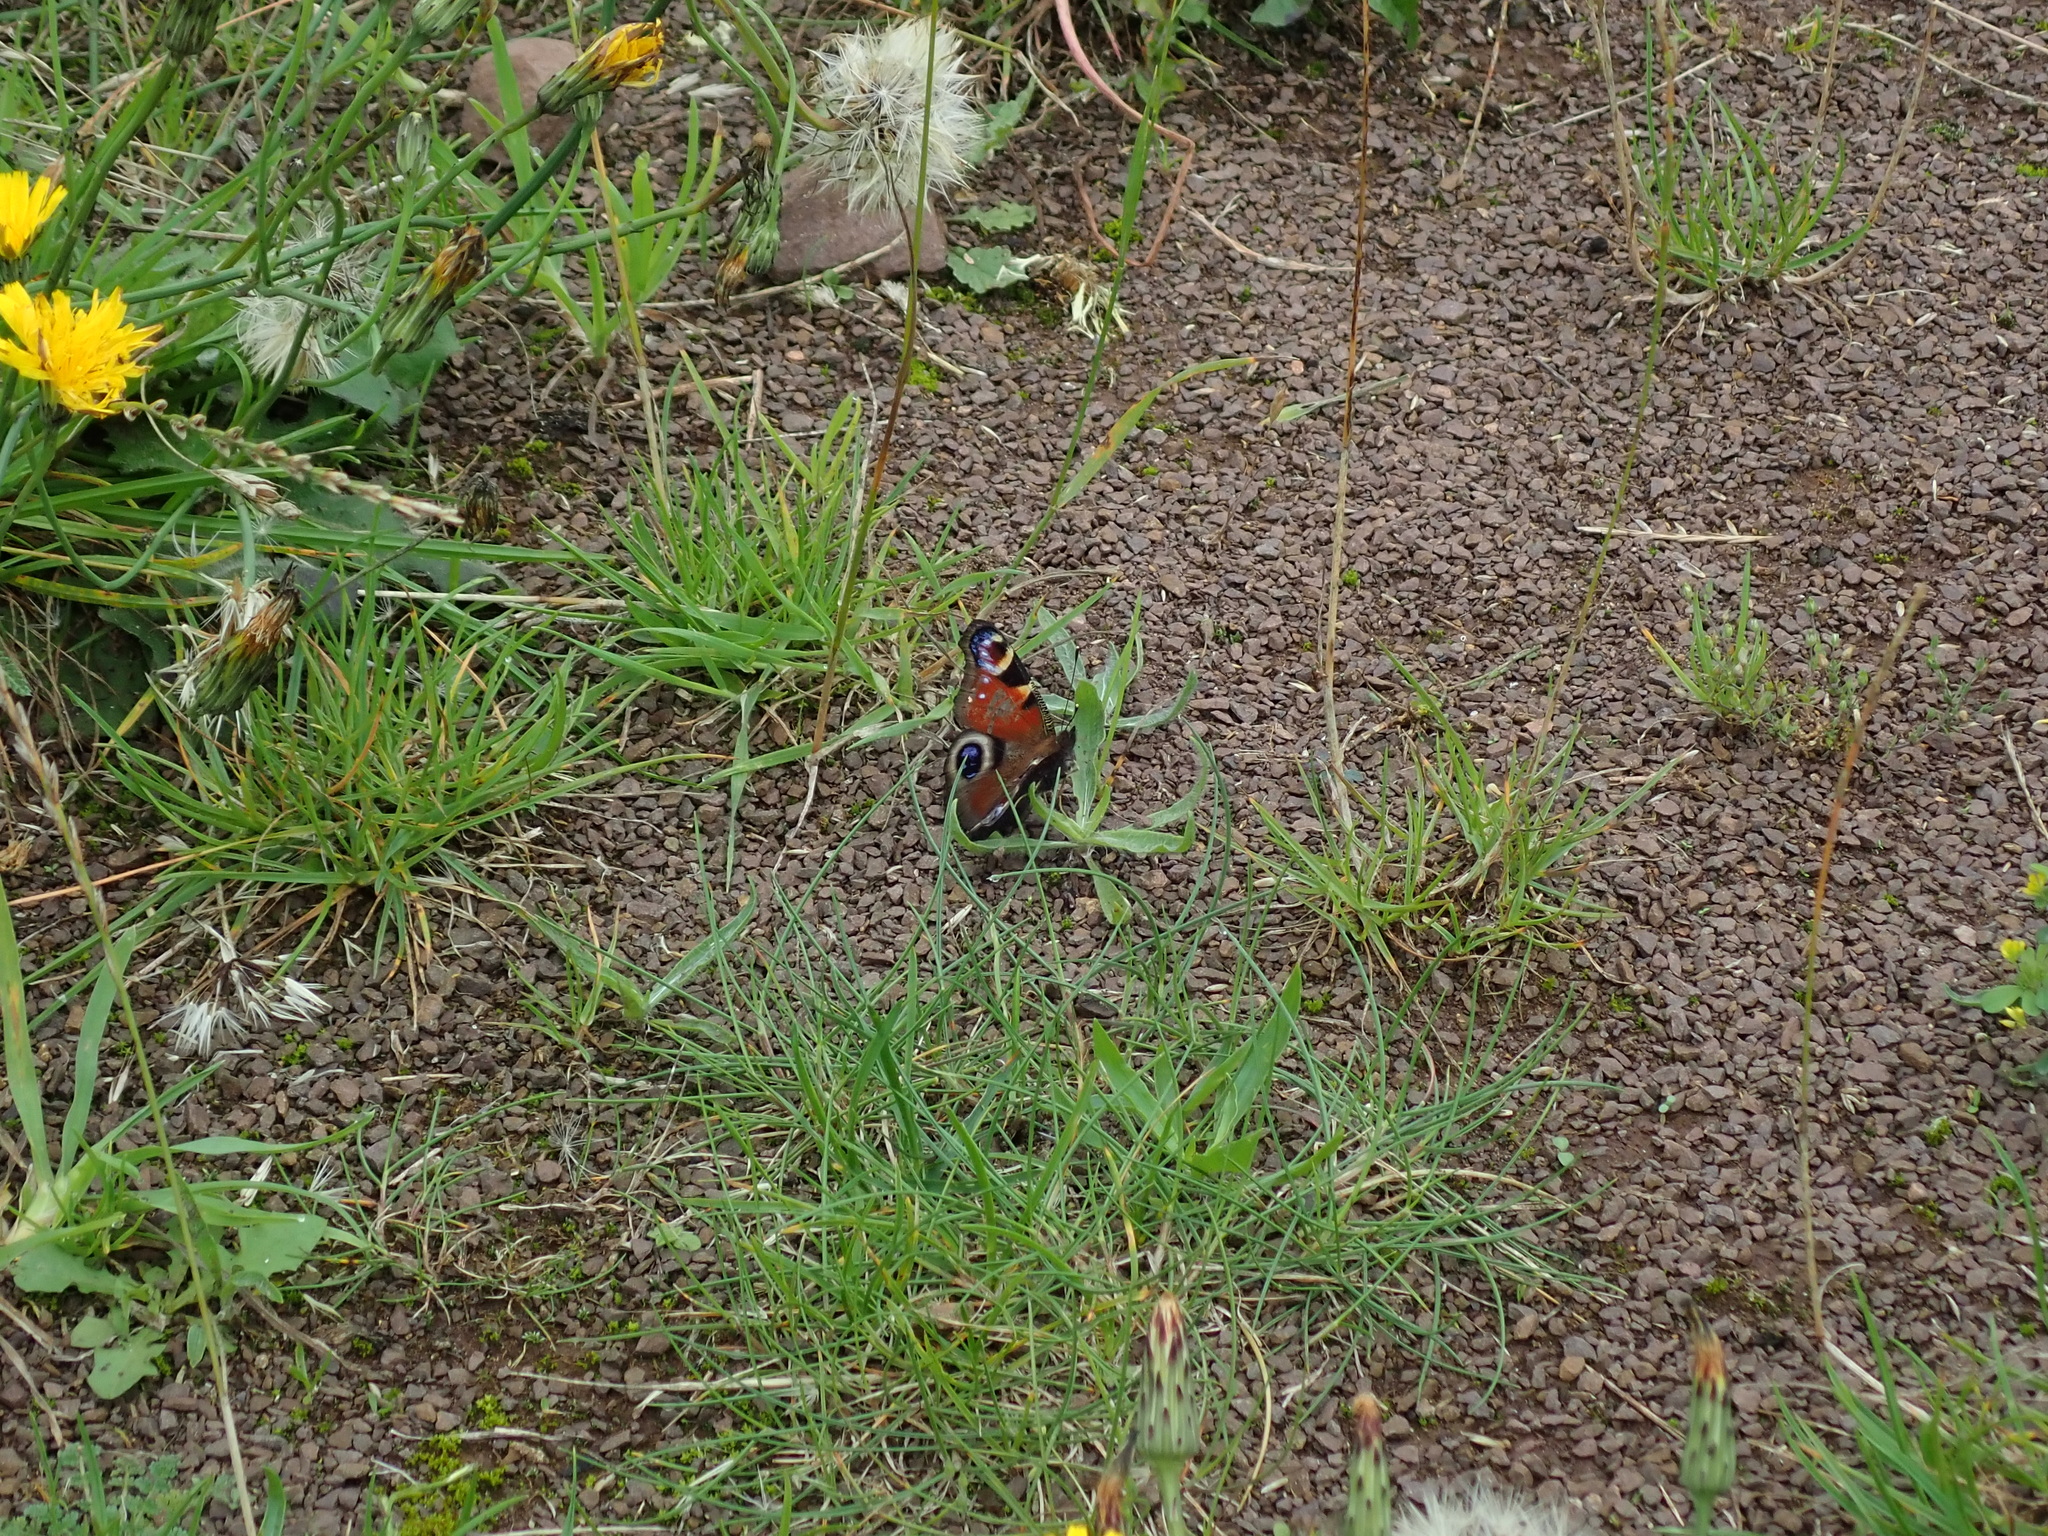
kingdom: Animalia
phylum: Arthropoda
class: Insecta
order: Lepidoptera
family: Nymphalidae
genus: Aglais
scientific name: Aglais io
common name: Peacock
